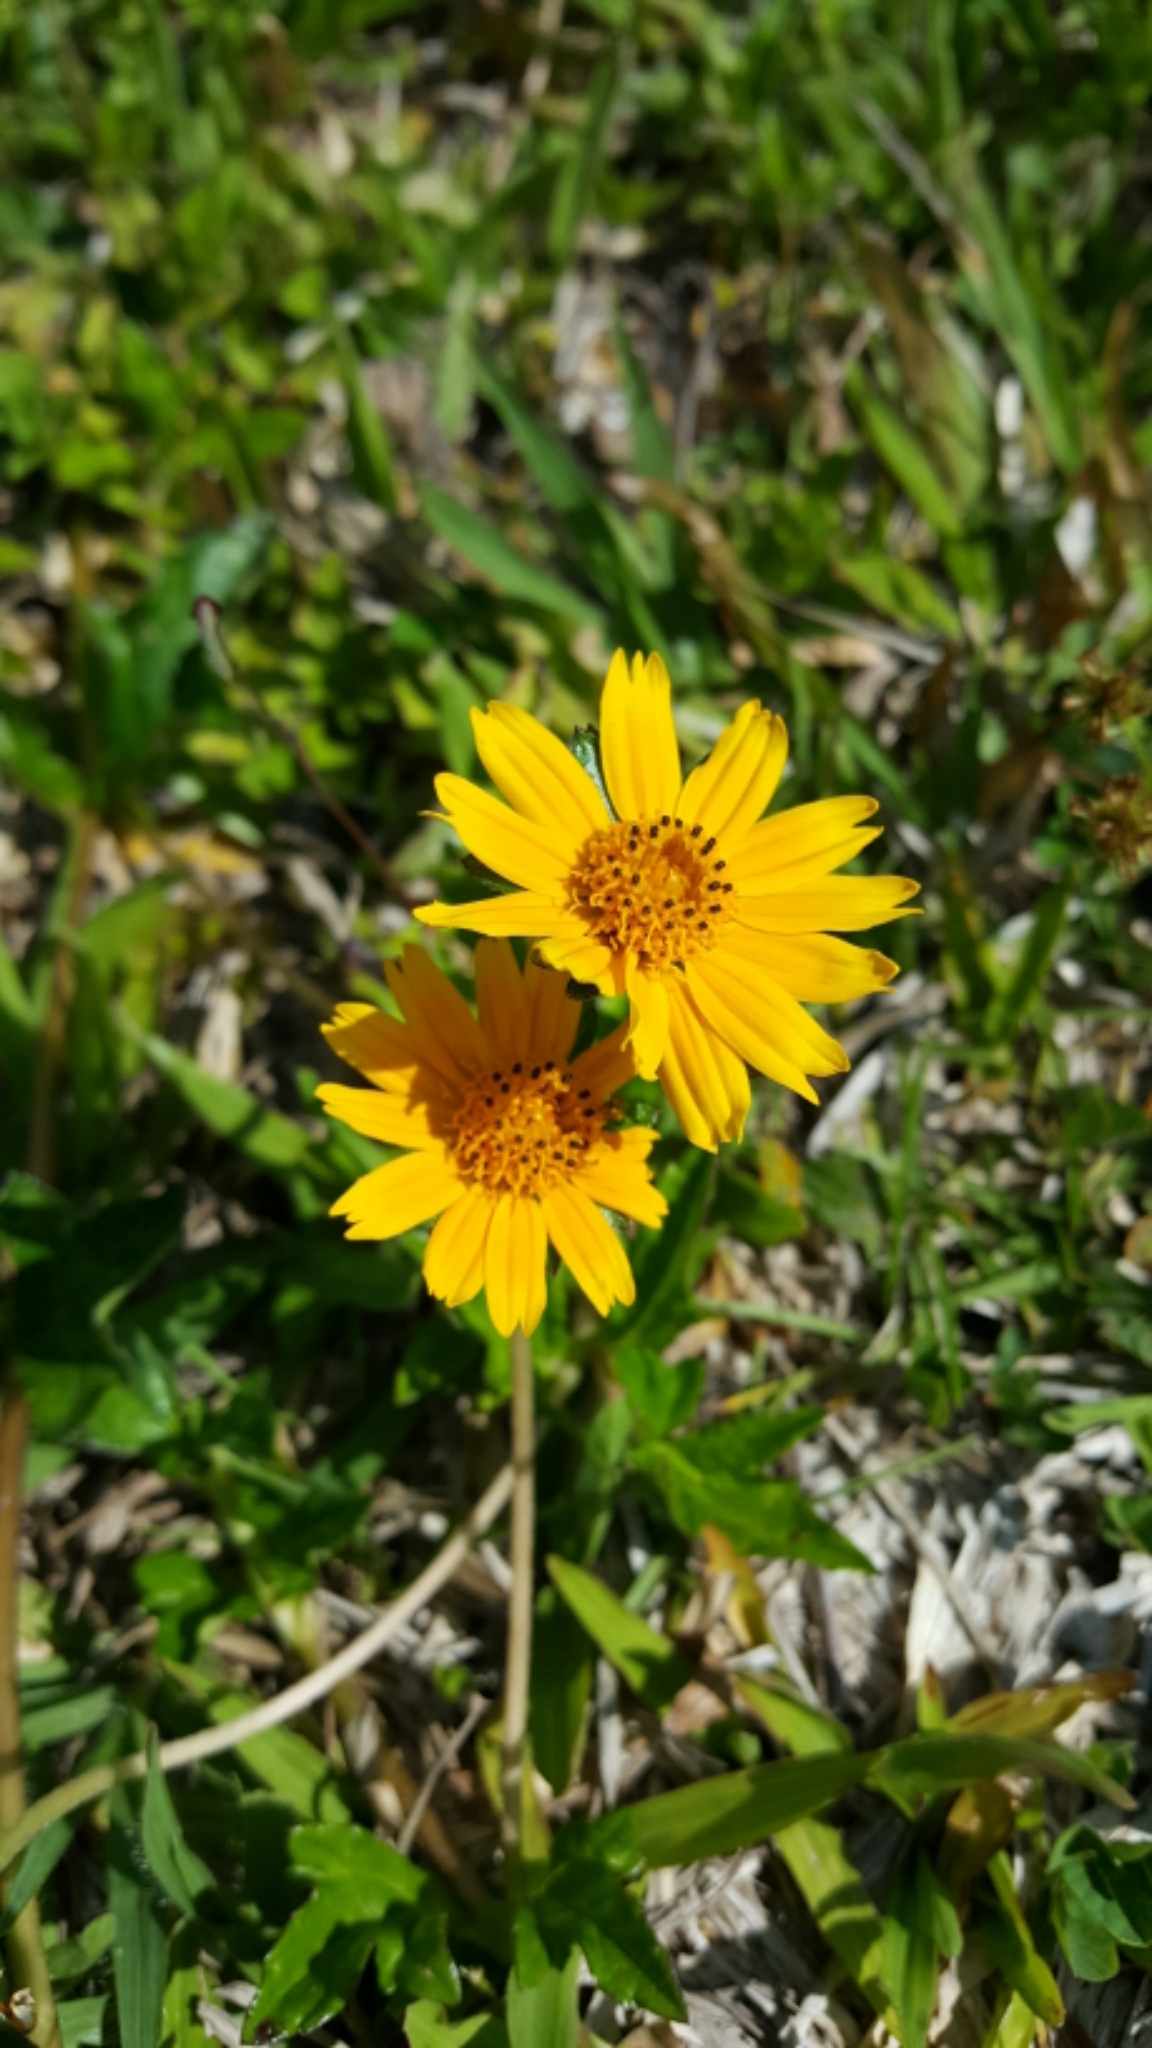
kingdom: Plantae
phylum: Tracheophyta
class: Magnoliopsida
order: Asterales
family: Asteraceae
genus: Sphagneticola
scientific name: Sphagneticola trilobata
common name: Bay biscayne creeping-oxeye
